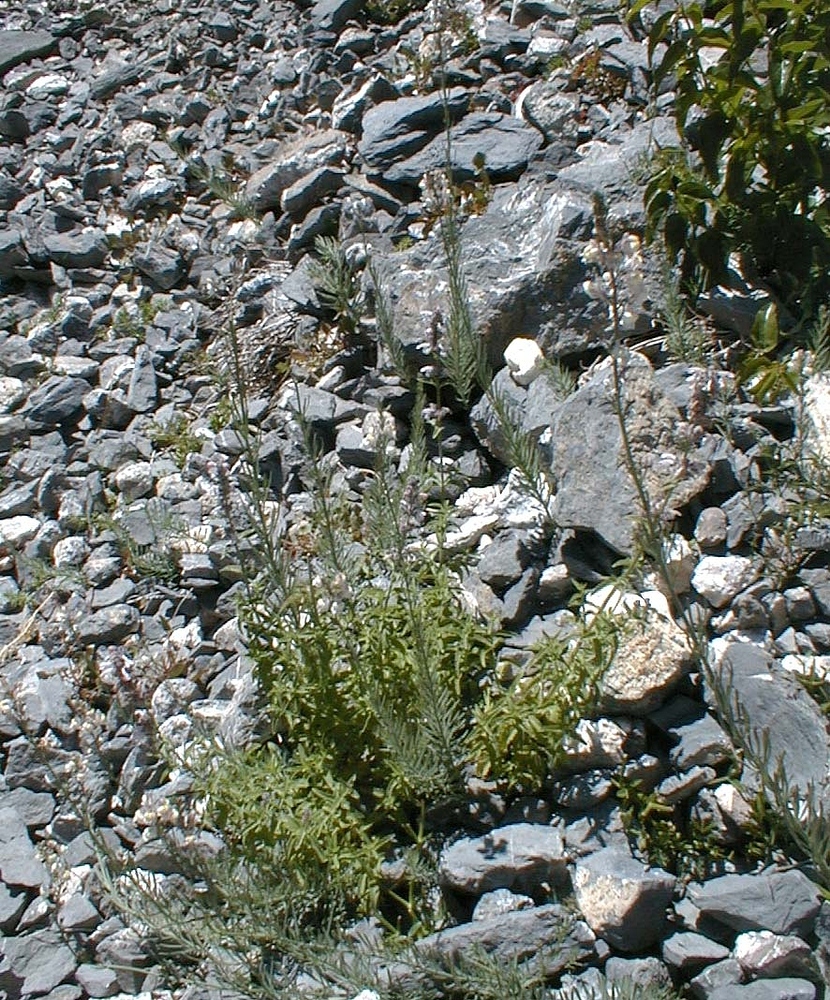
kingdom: Plantae
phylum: Tracheophyta
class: Magnoliopsida
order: Lamiales
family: Plantaginaceae
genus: Linaria
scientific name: Linaria repens
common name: Pale toadflax
